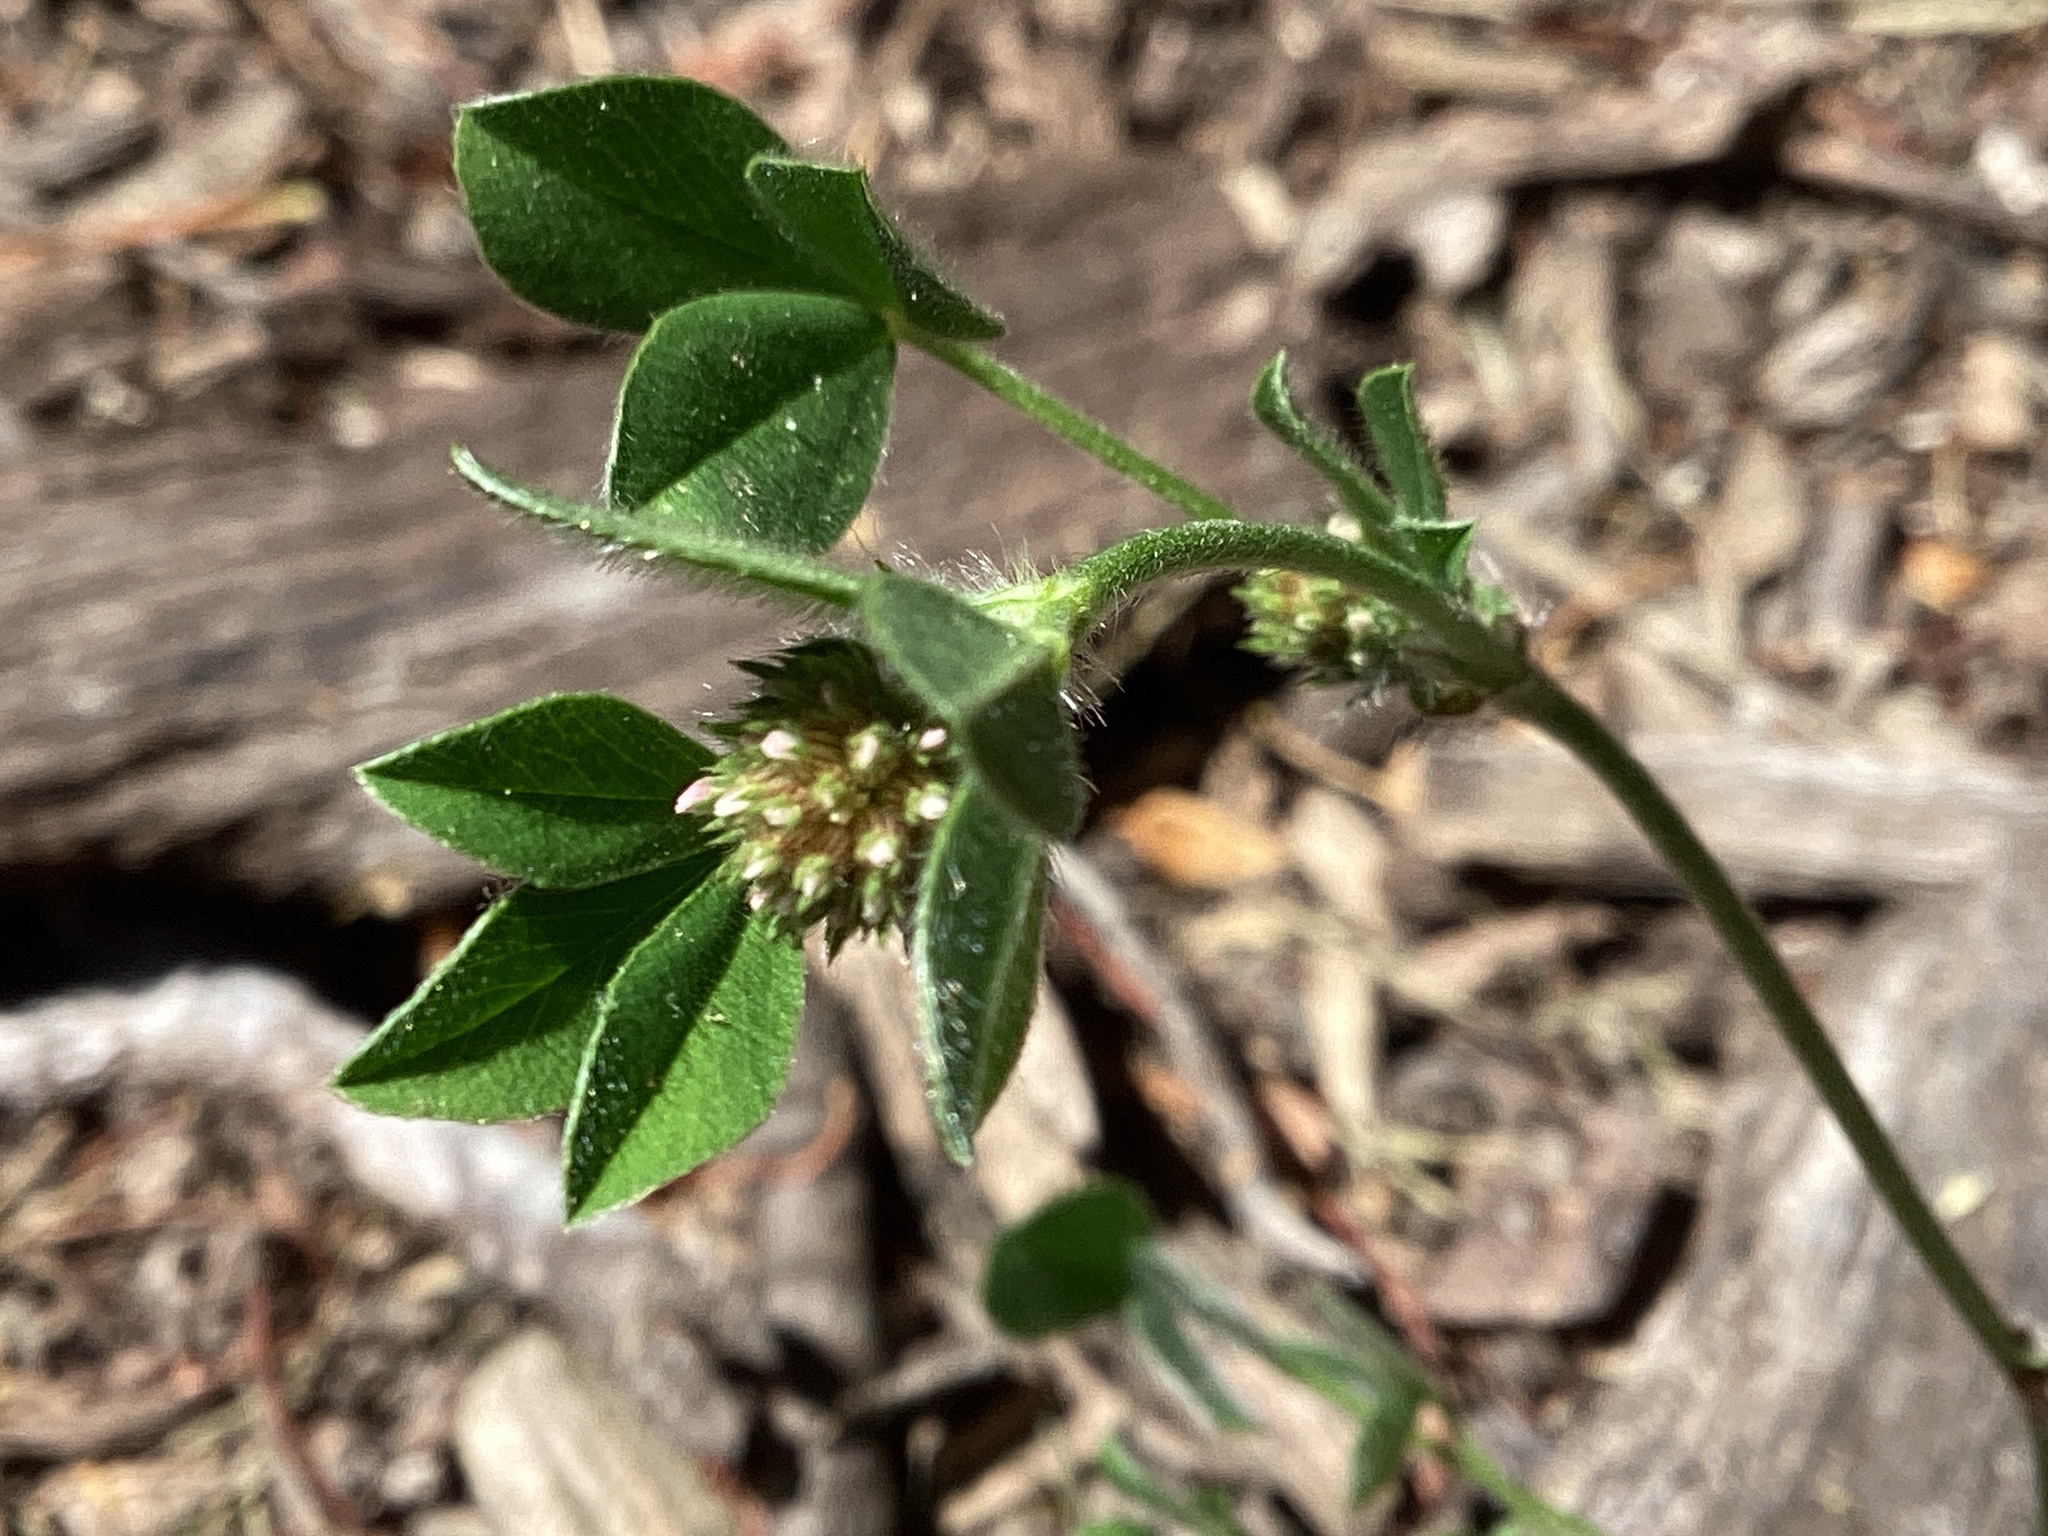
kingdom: Plantae
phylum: Tracheophyta
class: Magnoliopsida
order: Fabales
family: Fabaceae
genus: Trifolium
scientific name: Trifolium striatum
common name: Knotted clover
